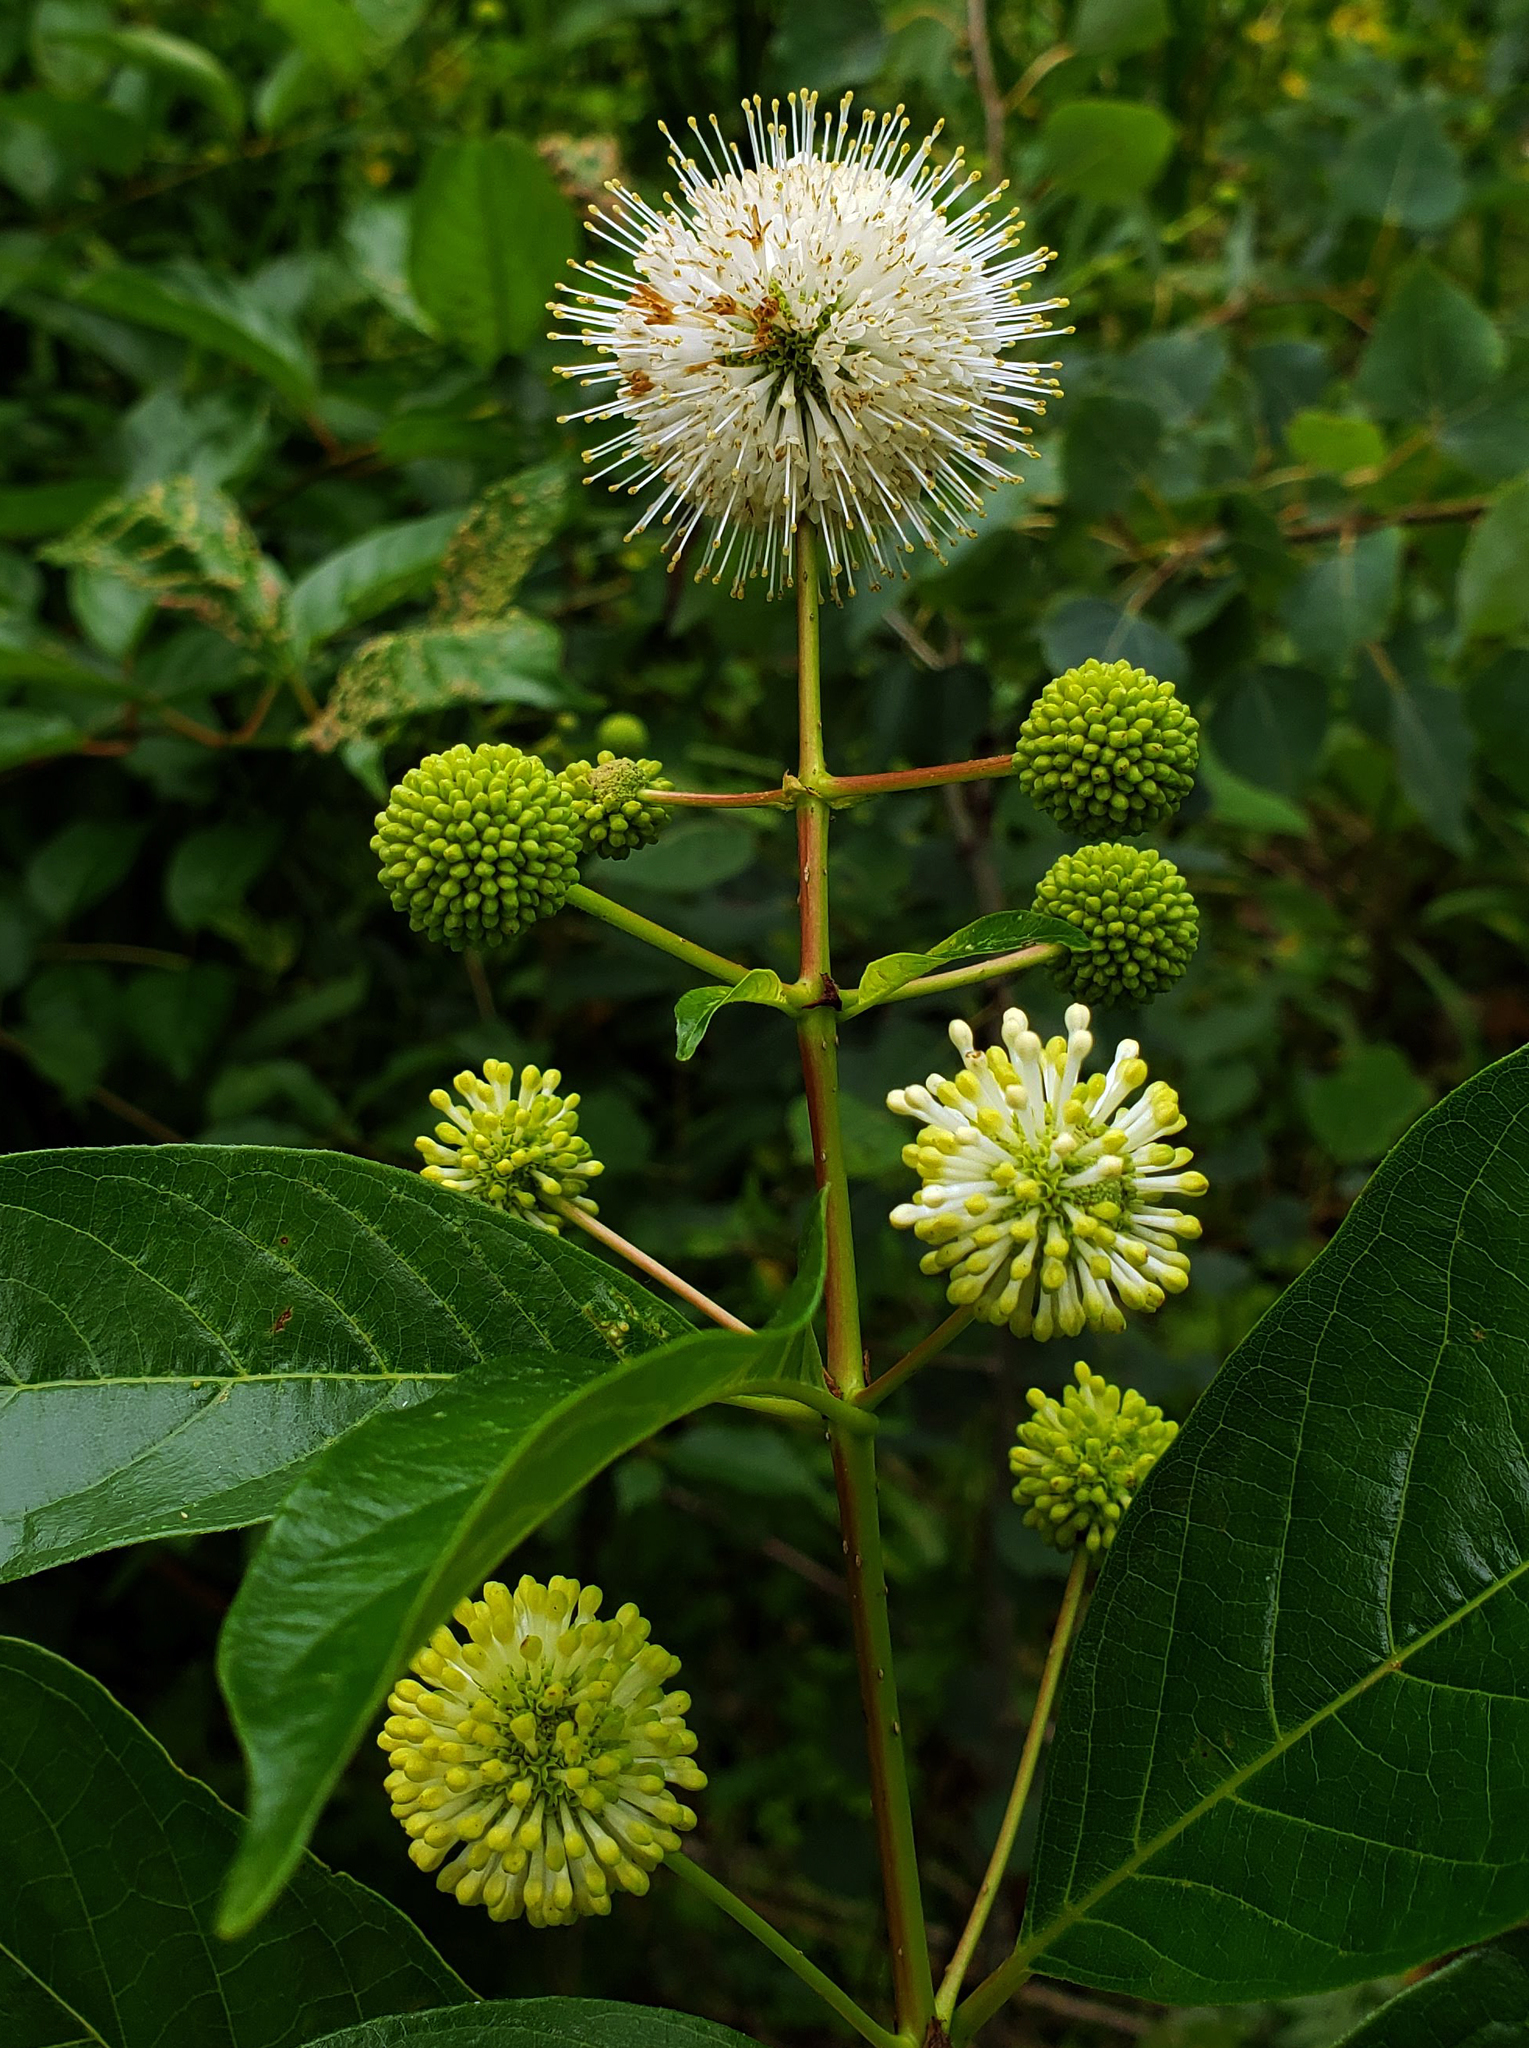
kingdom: Plantae
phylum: Tracheophyta
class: Magnoliopsida
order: Gentianales
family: Rubiaceae
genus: Cephalanthus
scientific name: Cephalanthus occidentalis
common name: Button-willow
